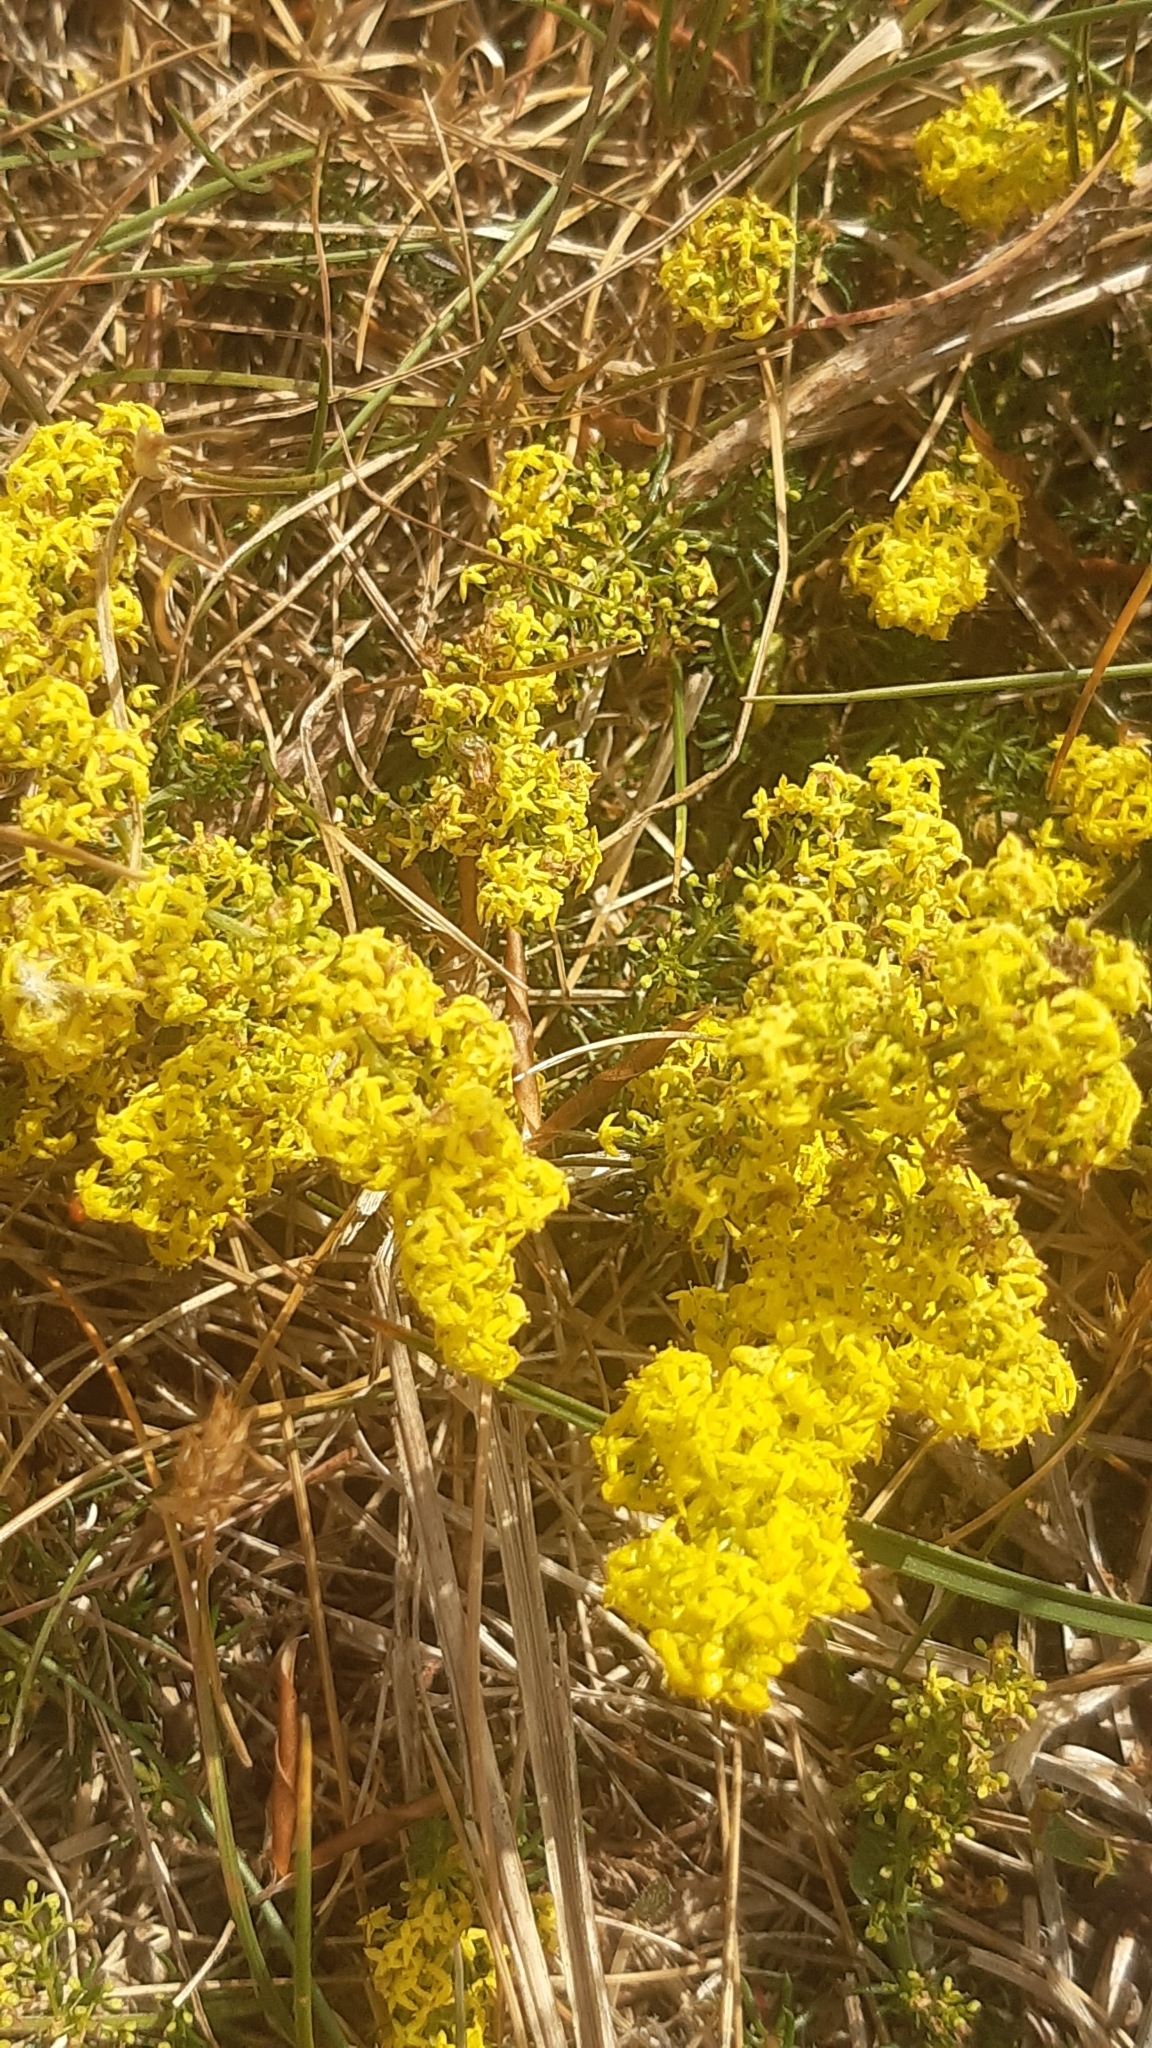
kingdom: Plantae
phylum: Tracheophyta
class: Magnoliopsida
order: Gentianales
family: Rubiaceae
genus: Galium
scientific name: Galium verum
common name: Lady's bedstraw
